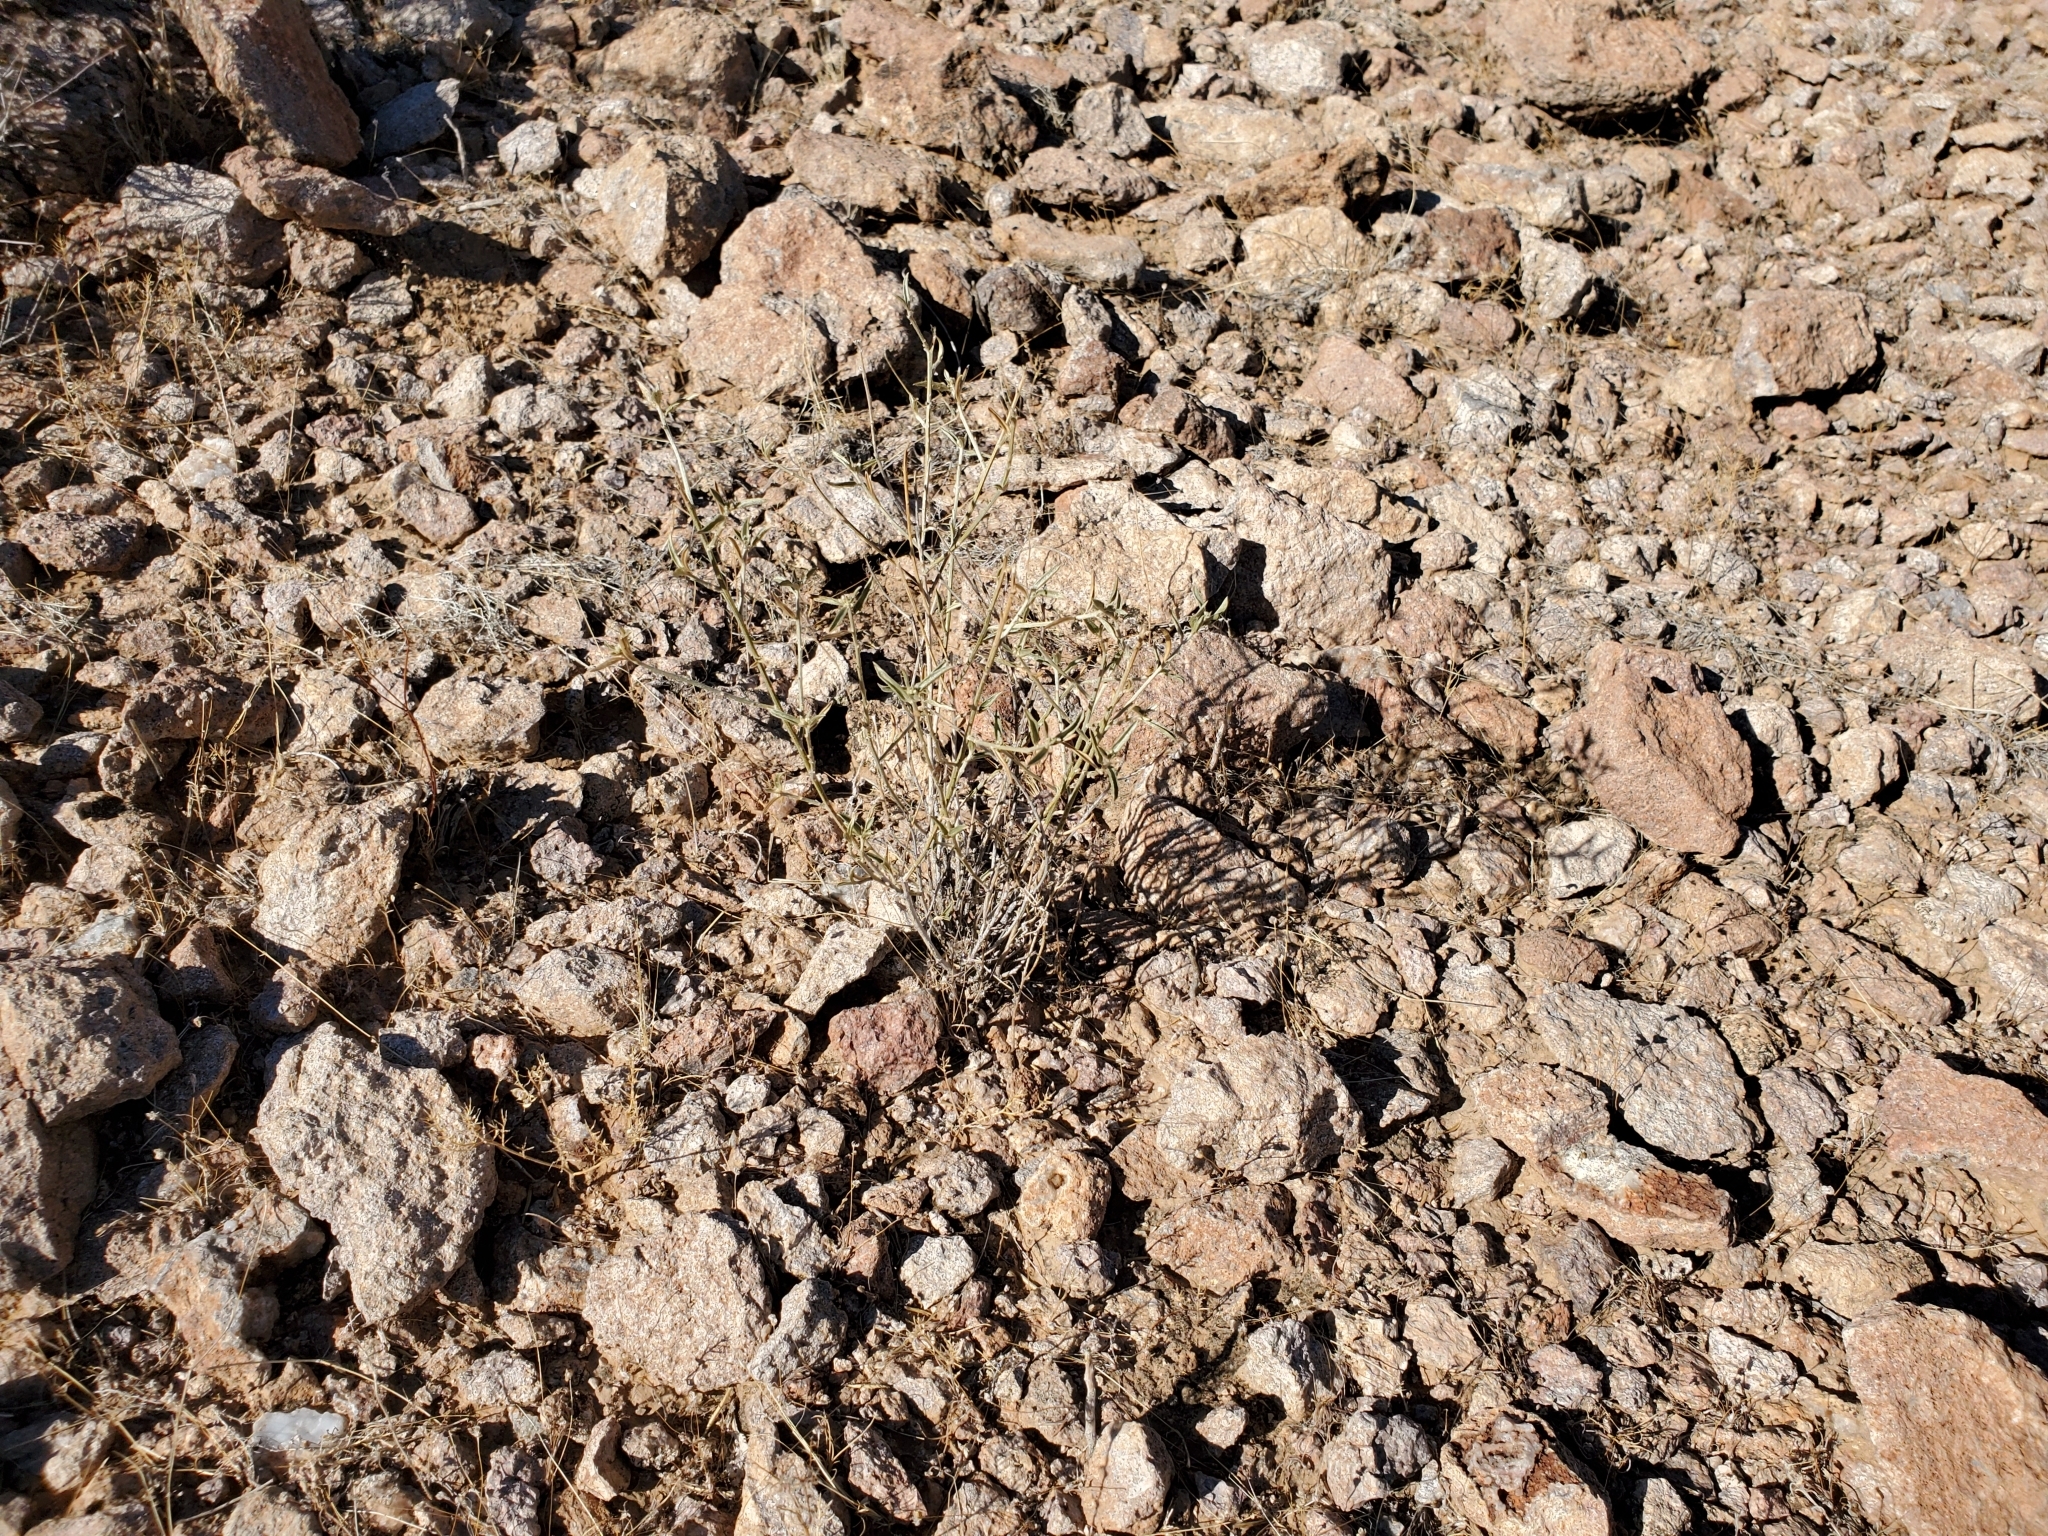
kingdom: Plantae
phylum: Tracheophyta
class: Magnoliopsida
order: Malpighiales
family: Euphorbiaceae
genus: Ditaxis
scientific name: Ditaxis lanceolata
